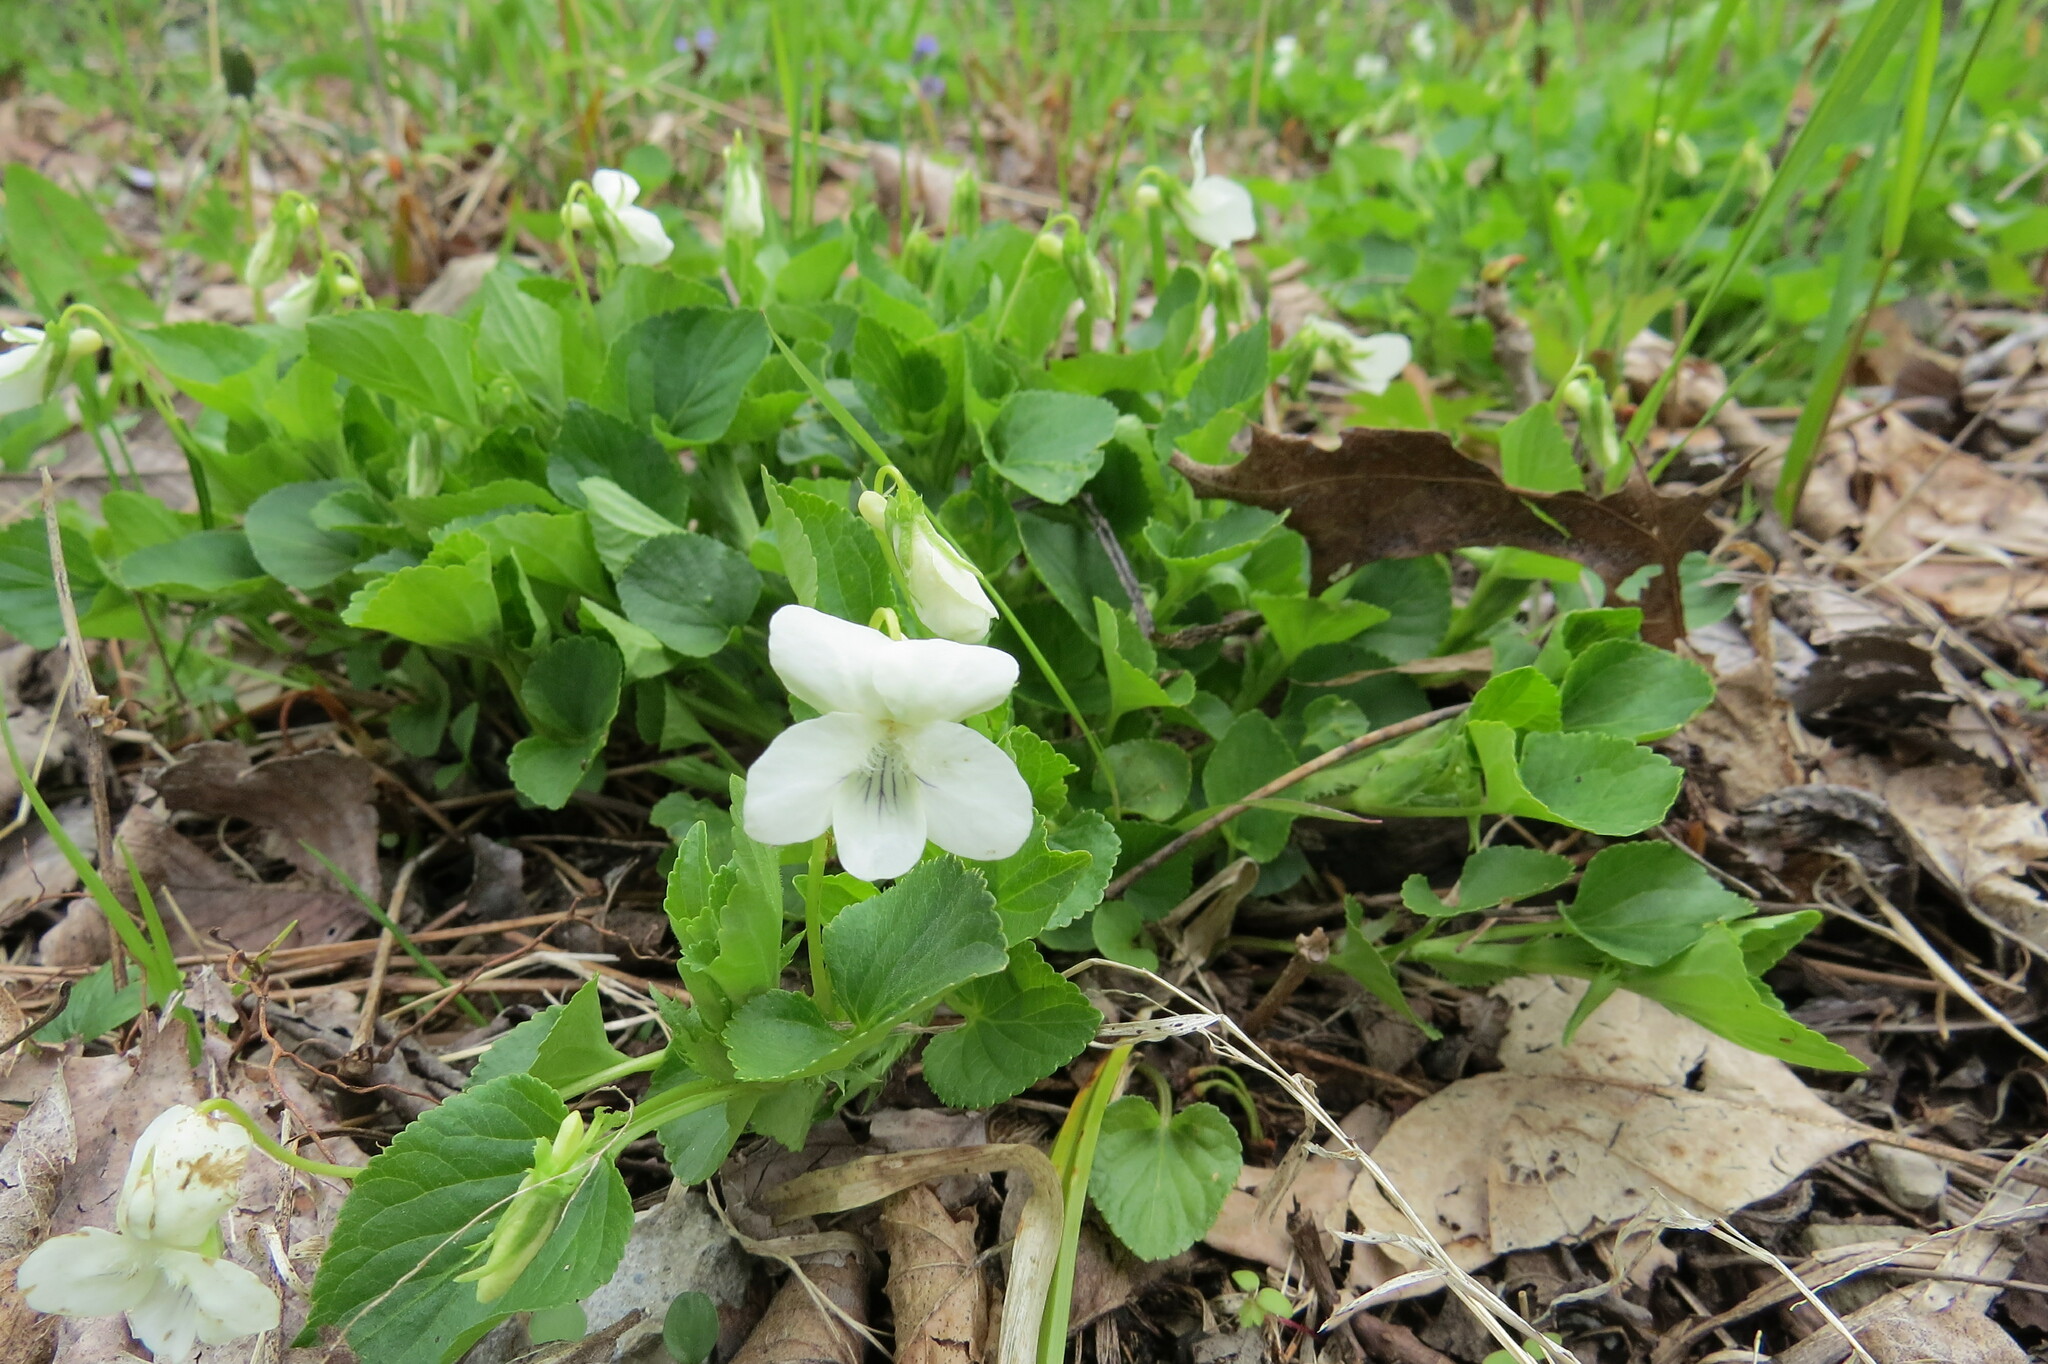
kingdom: Plantae
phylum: Tracheophyta
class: Magnoliopsida
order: Malpighiales
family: Violaceae
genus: Viola
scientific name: Viola striata
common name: Cream violet
